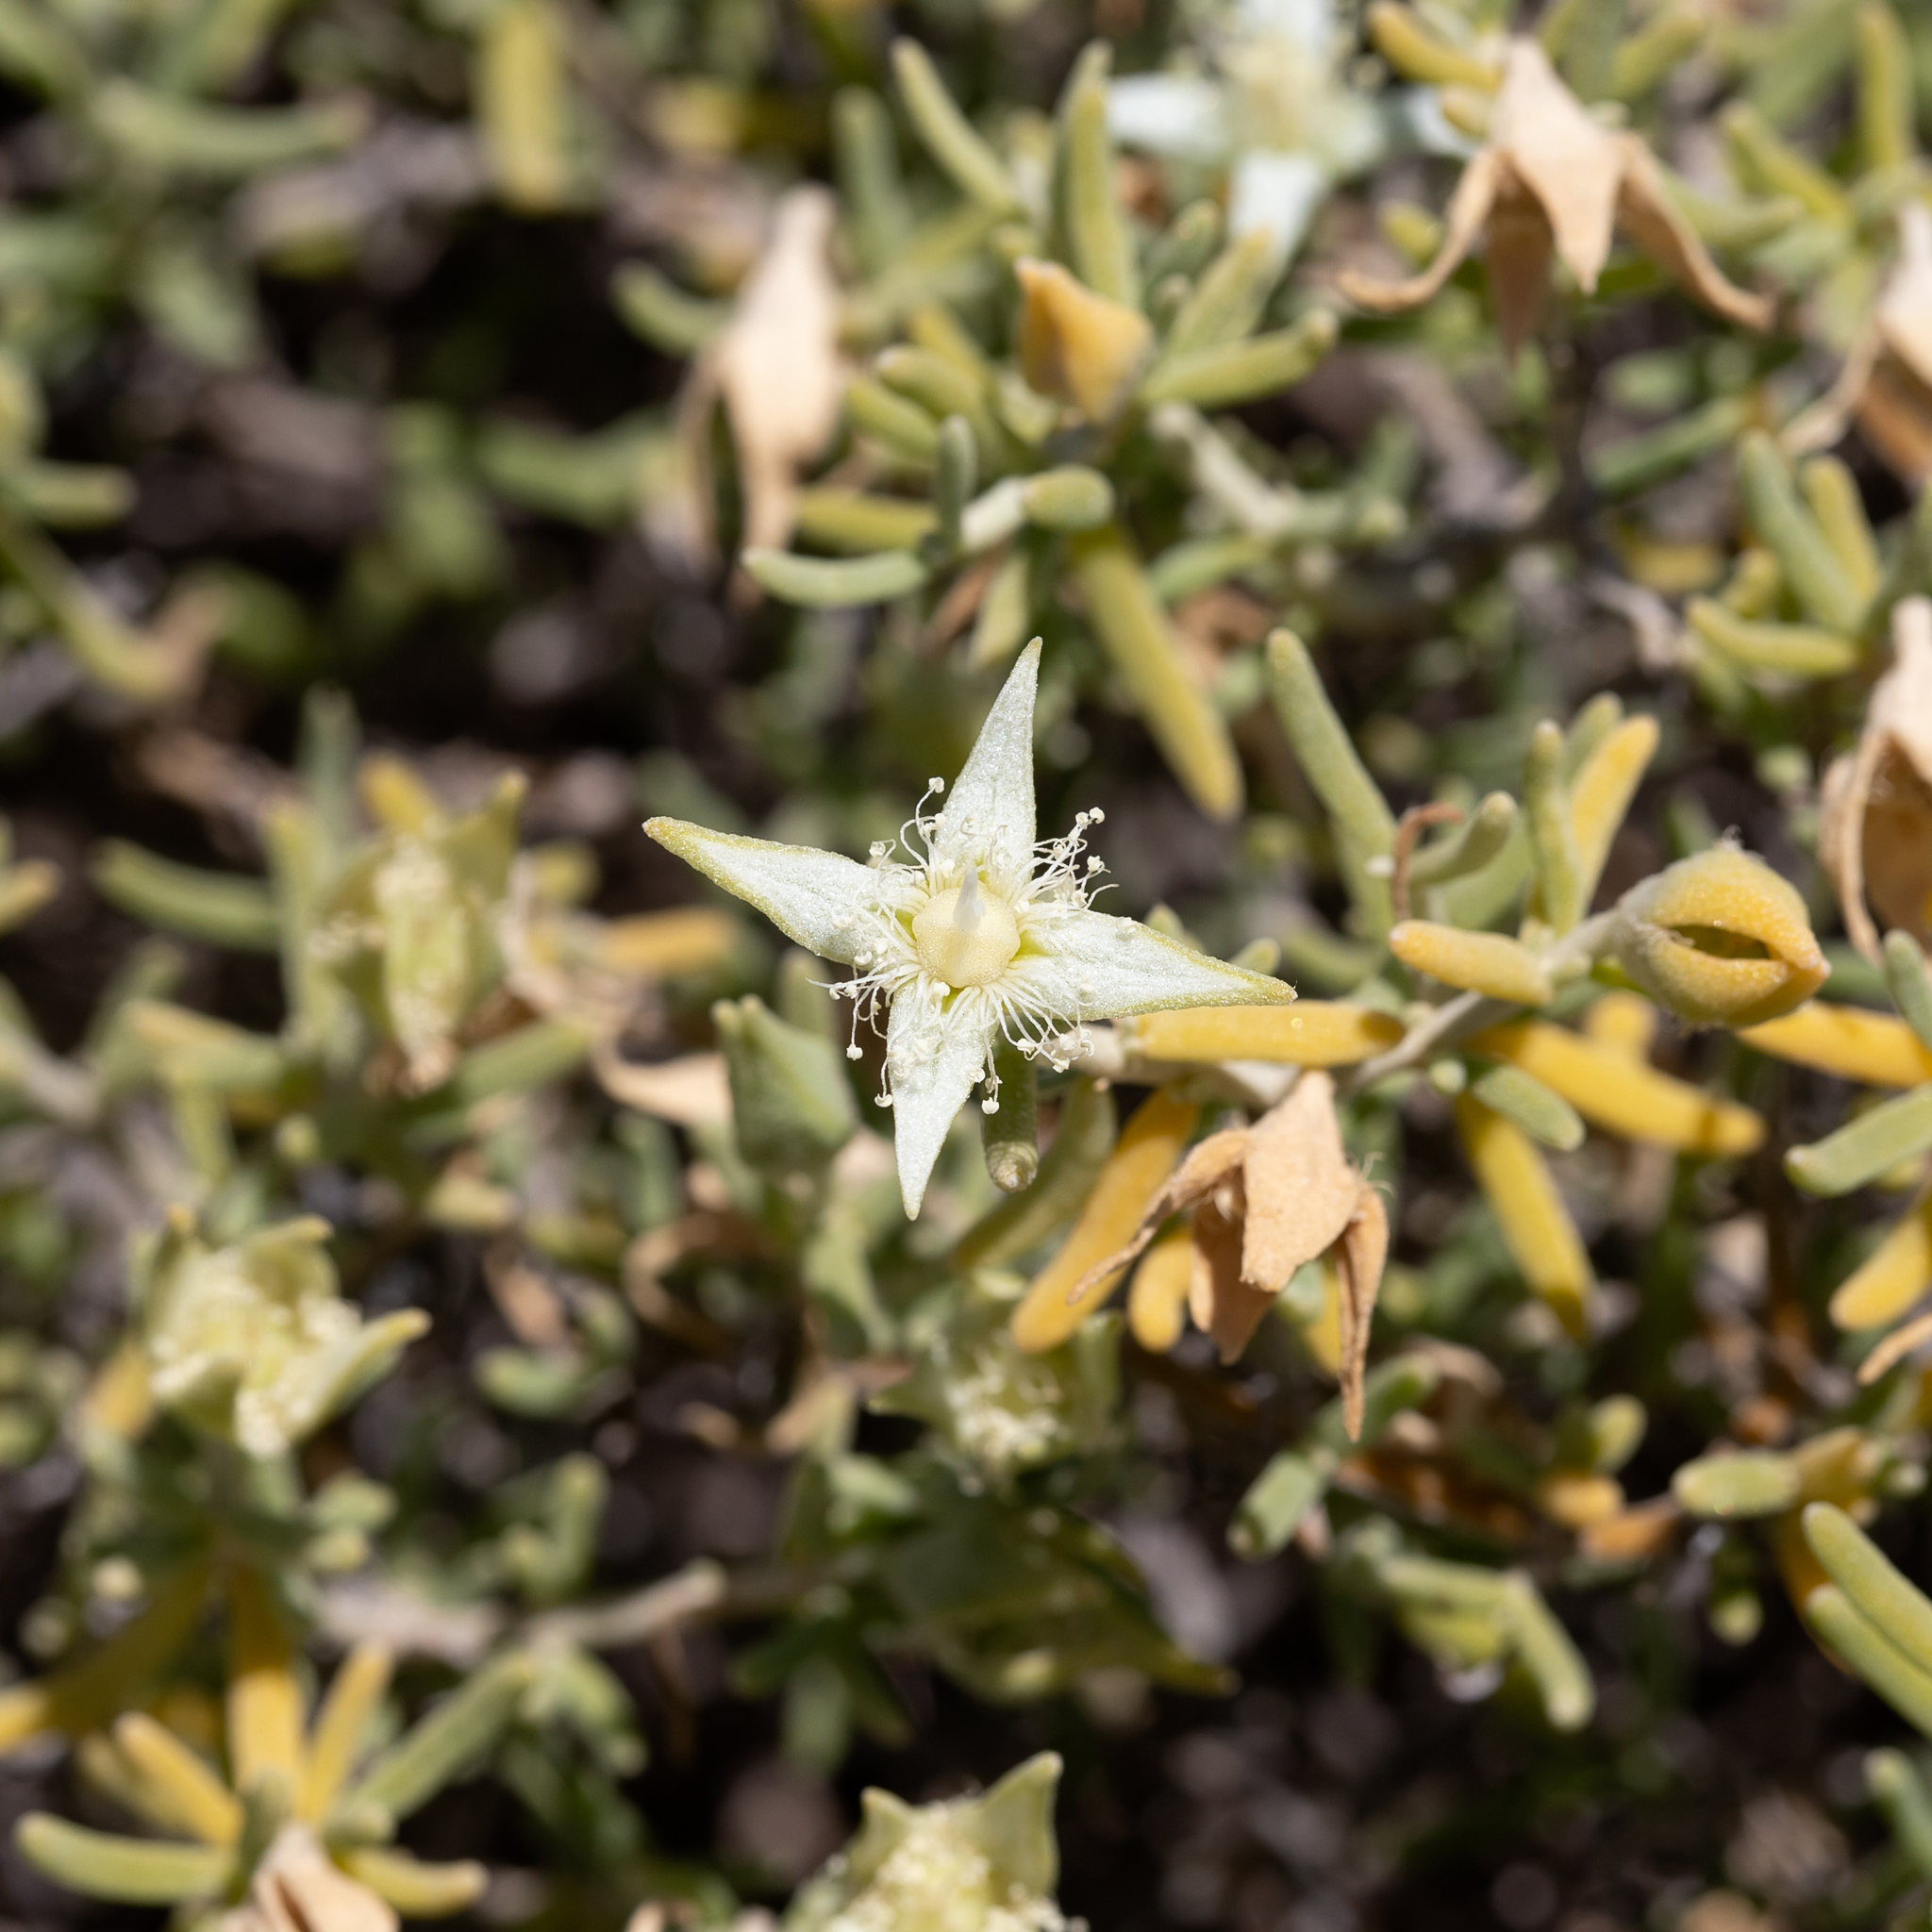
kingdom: Plantae
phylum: Tracheophyta
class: Magnoliopsida
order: Caryophyllales
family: Aizoaceae
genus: Gunniopsis
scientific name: Gunniopsis quadrifida
